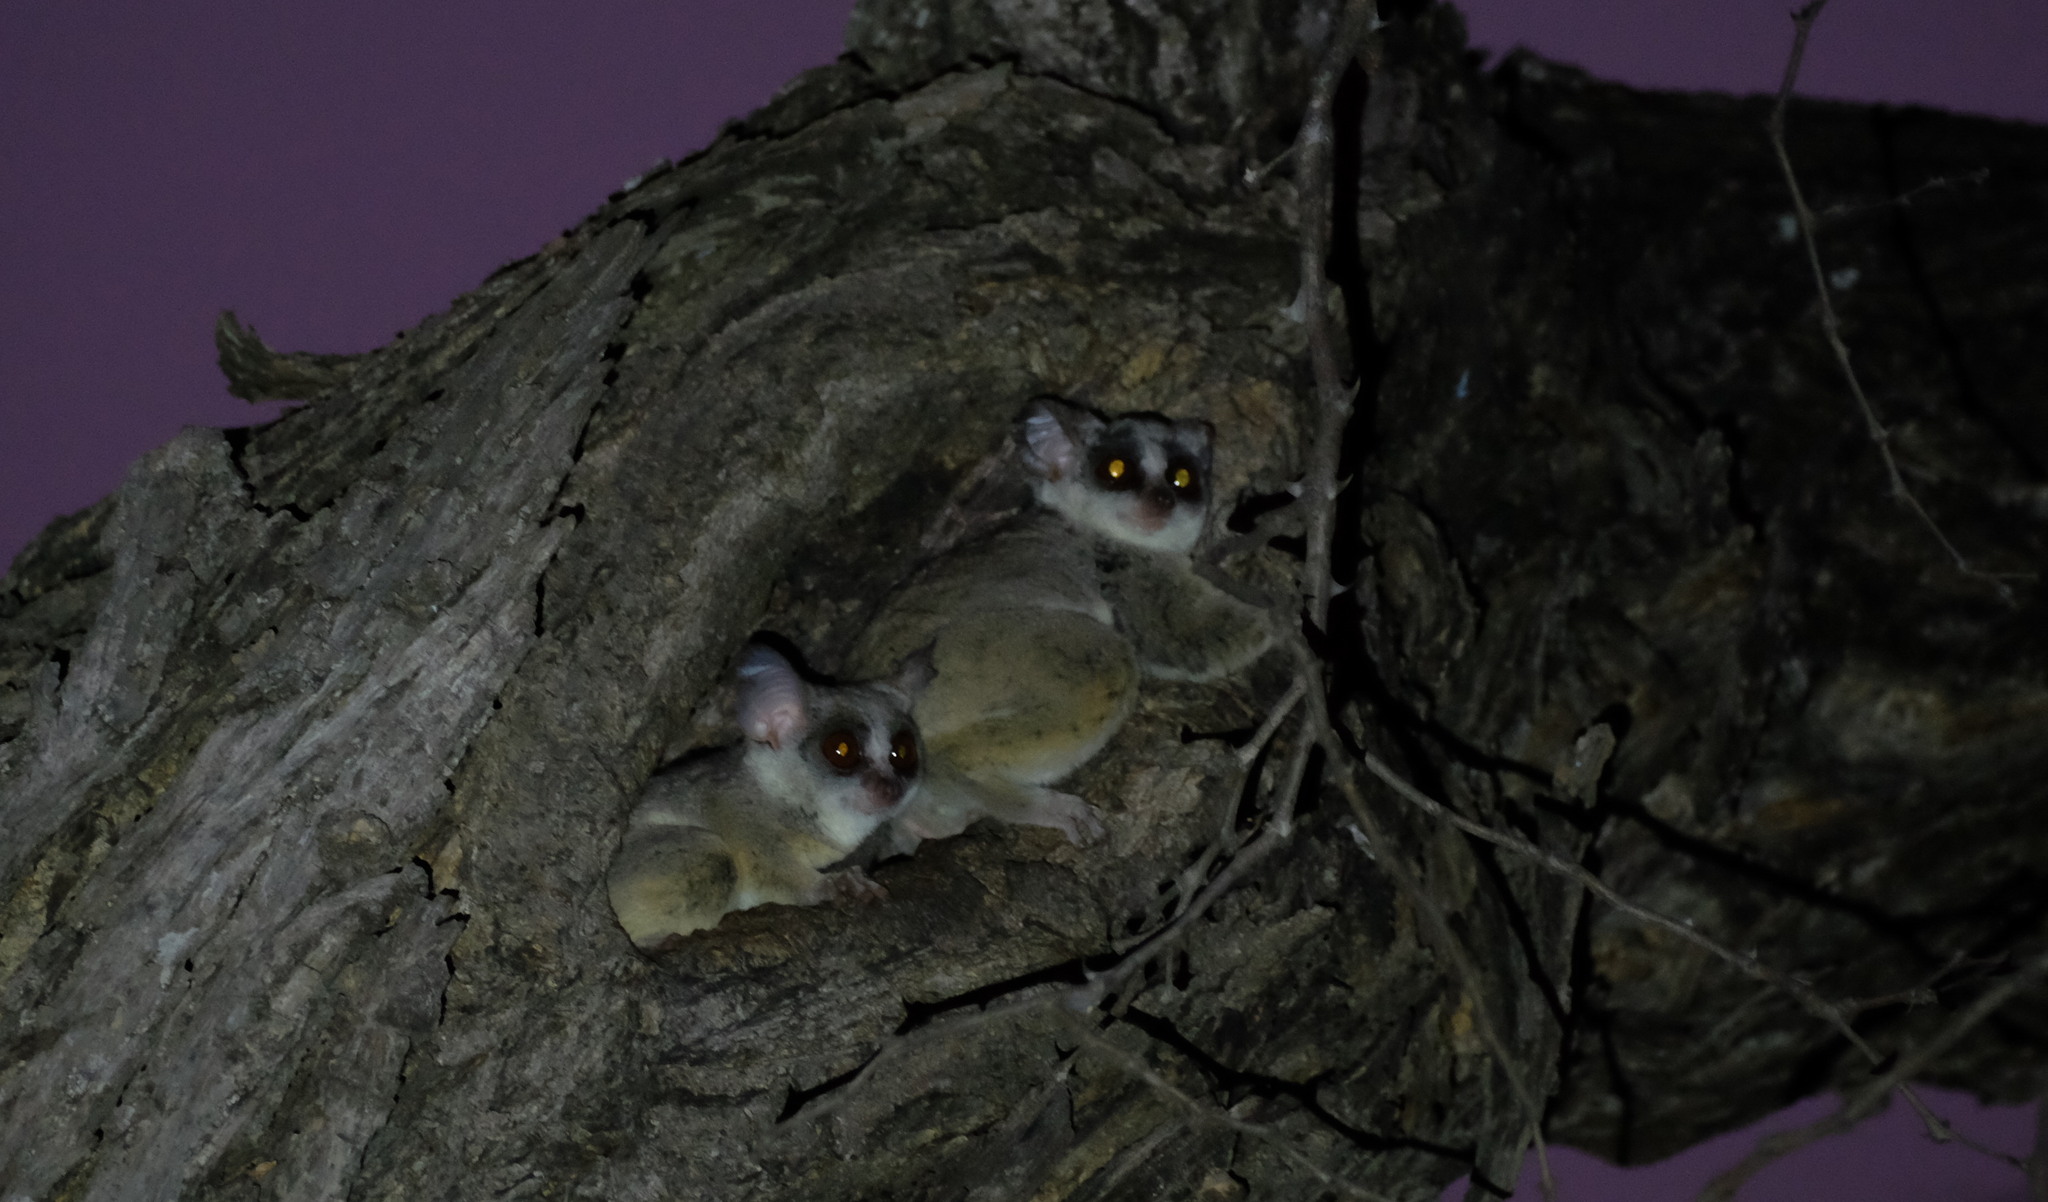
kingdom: Animalia
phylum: Chordata
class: Mammalia
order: Primates
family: Galagidae
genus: Galago
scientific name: Galago moholi
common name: Moholi bushbaby
